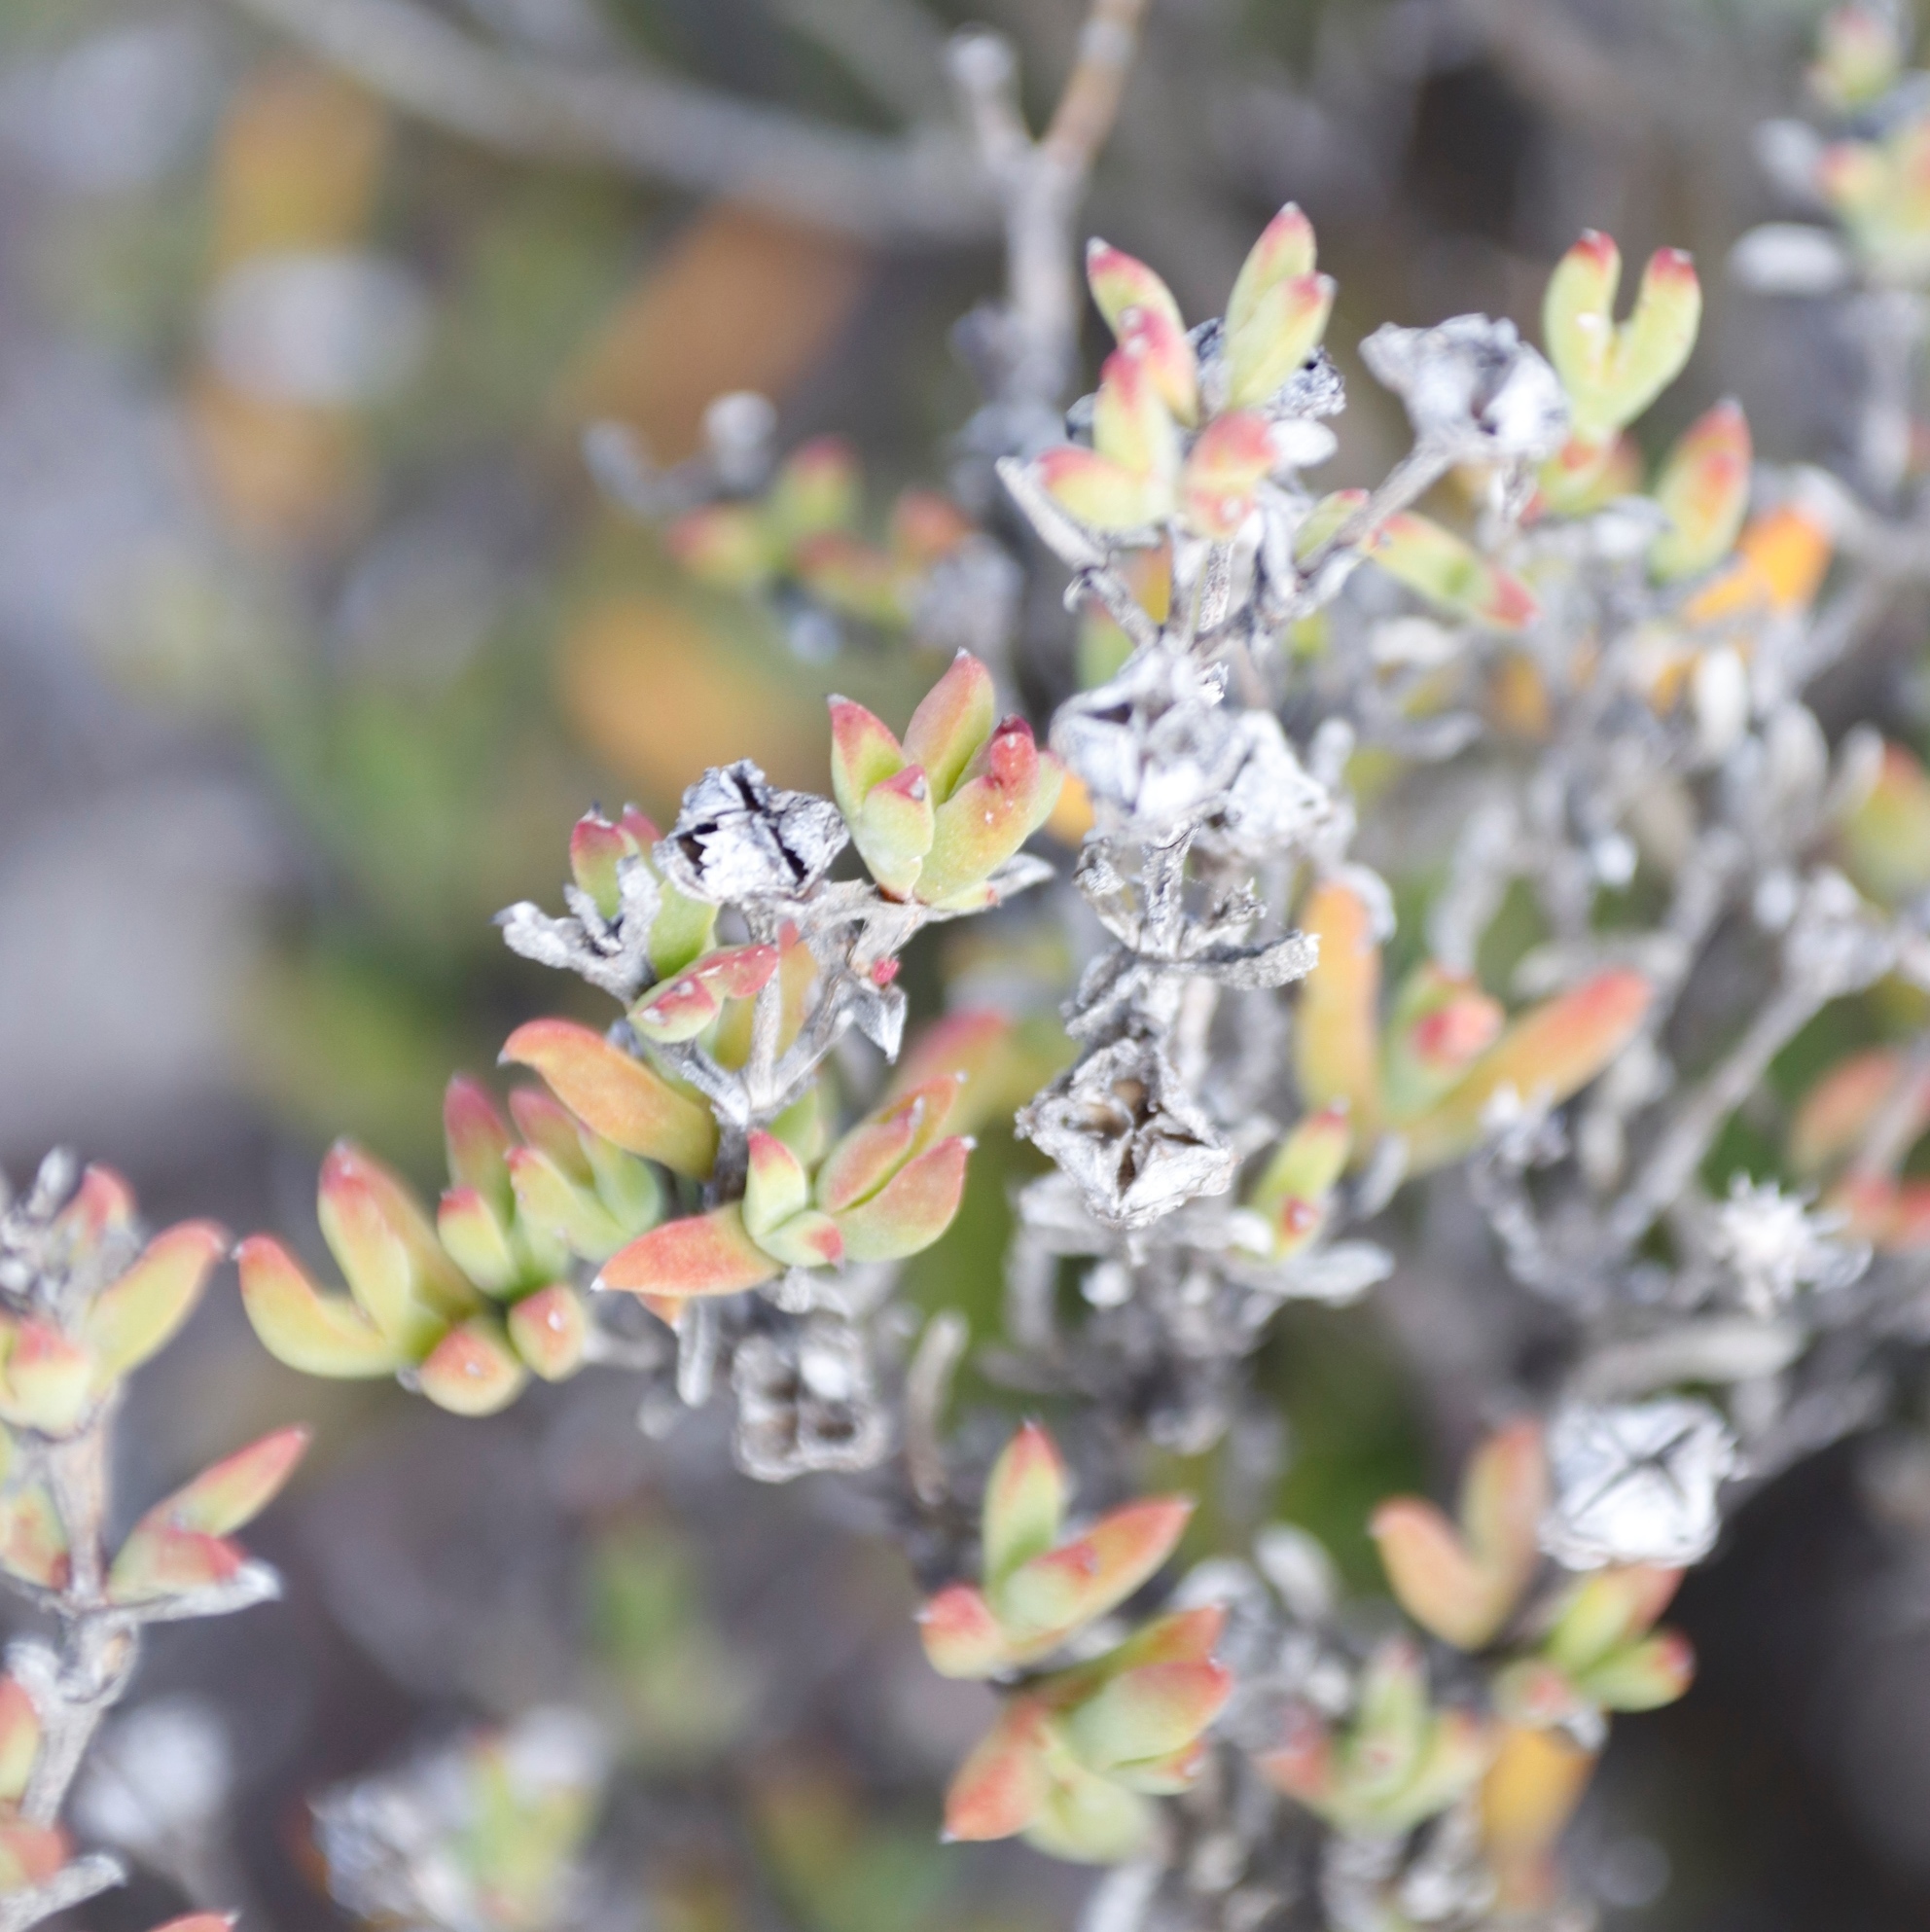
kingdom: Plantae
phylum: Tracheophyta
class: Magnoliopsida
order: Caryophyllales
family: Aizoaceae
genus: Drosanthemum
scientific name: Drosanthemum quadratum
